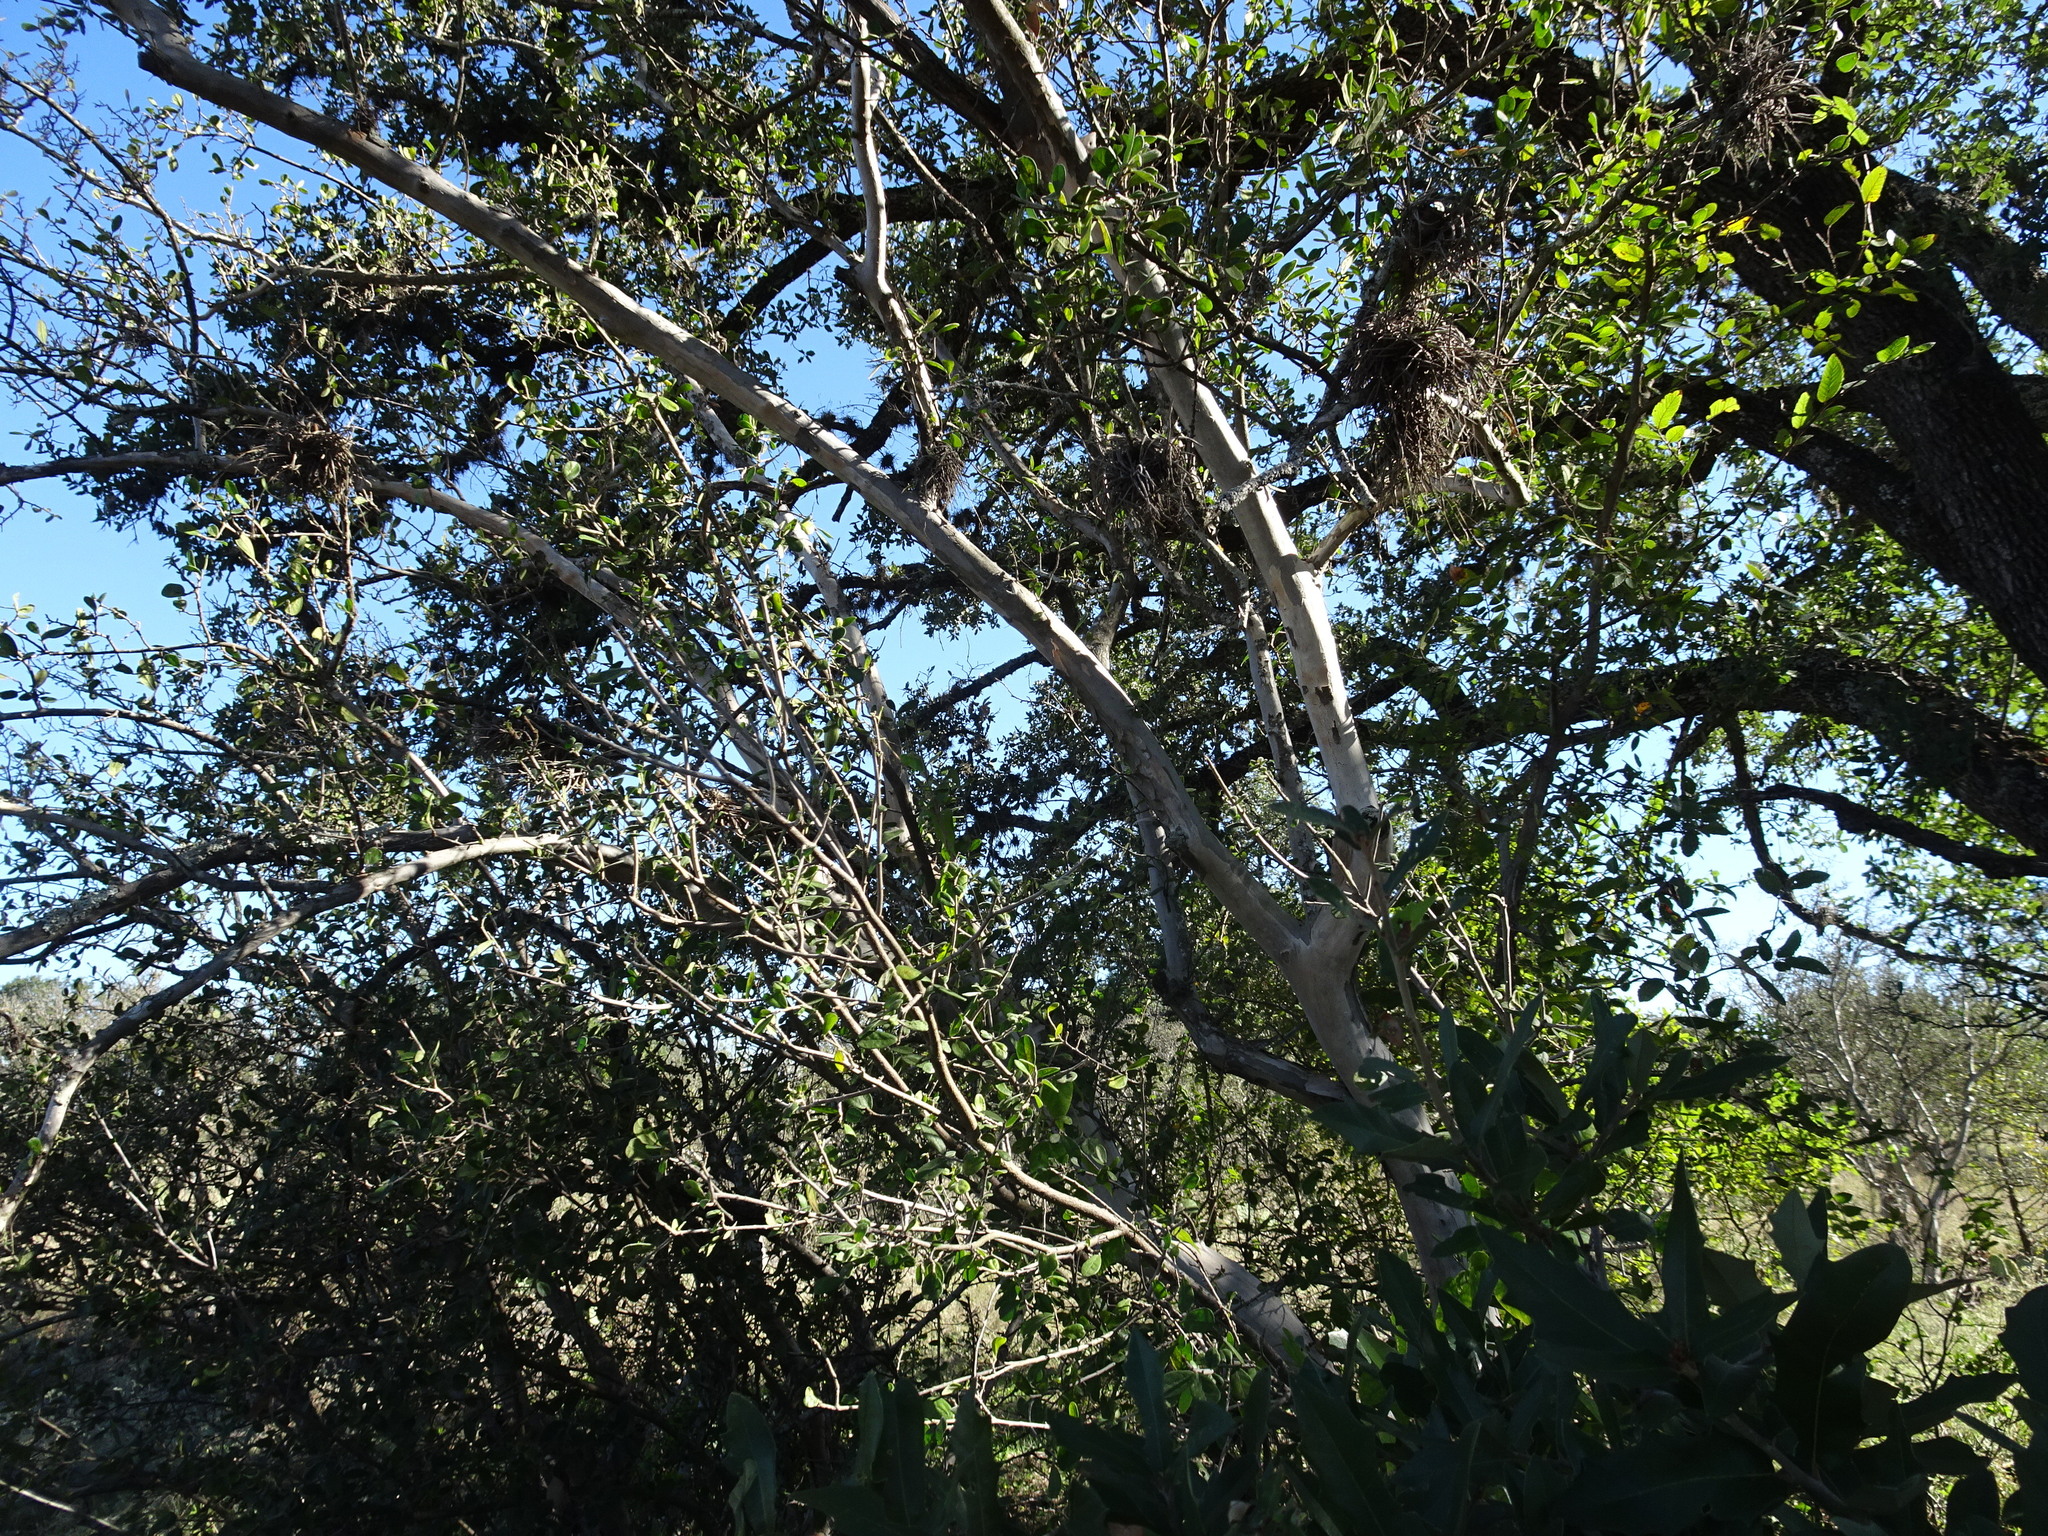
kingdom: Plantae
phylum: Tracheophyta
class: Magnoliopsida
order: Ericales
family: Ebenaceae
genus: Diospyros
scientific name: Diospyros texana
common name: Texas persimmon
